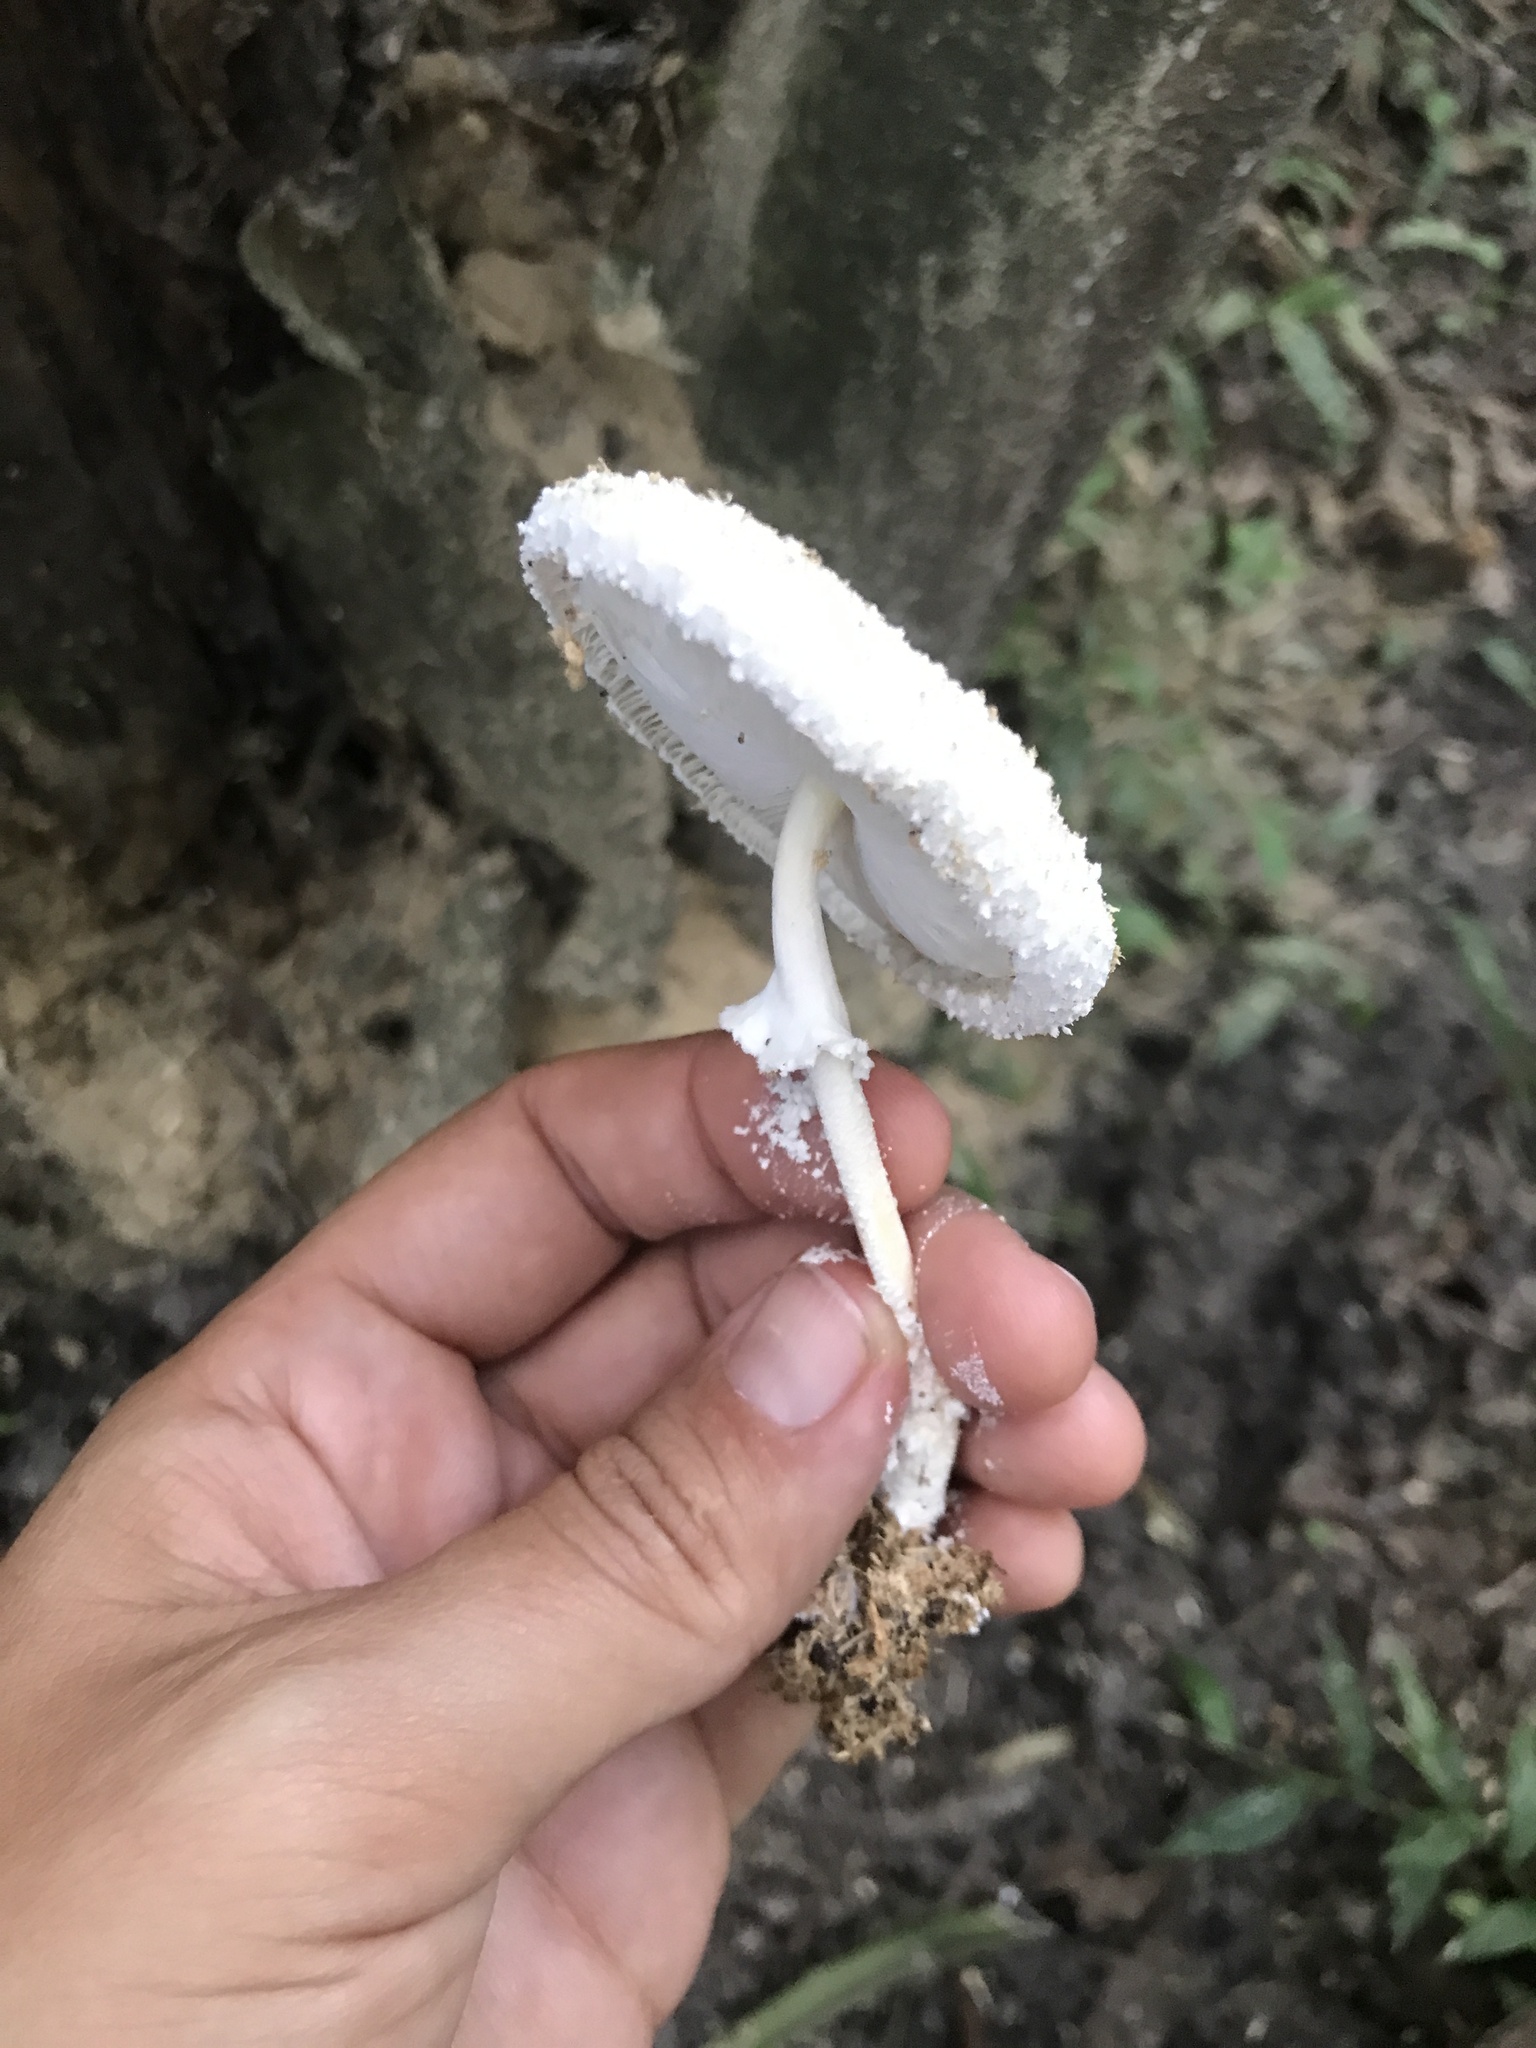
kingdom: Fungi
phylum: Basidiomycota
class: Agaricomycetes
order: Agaricales
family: Agaricaceae
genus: Leucocoprinus
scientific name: Leucocoprinus cretaceus
